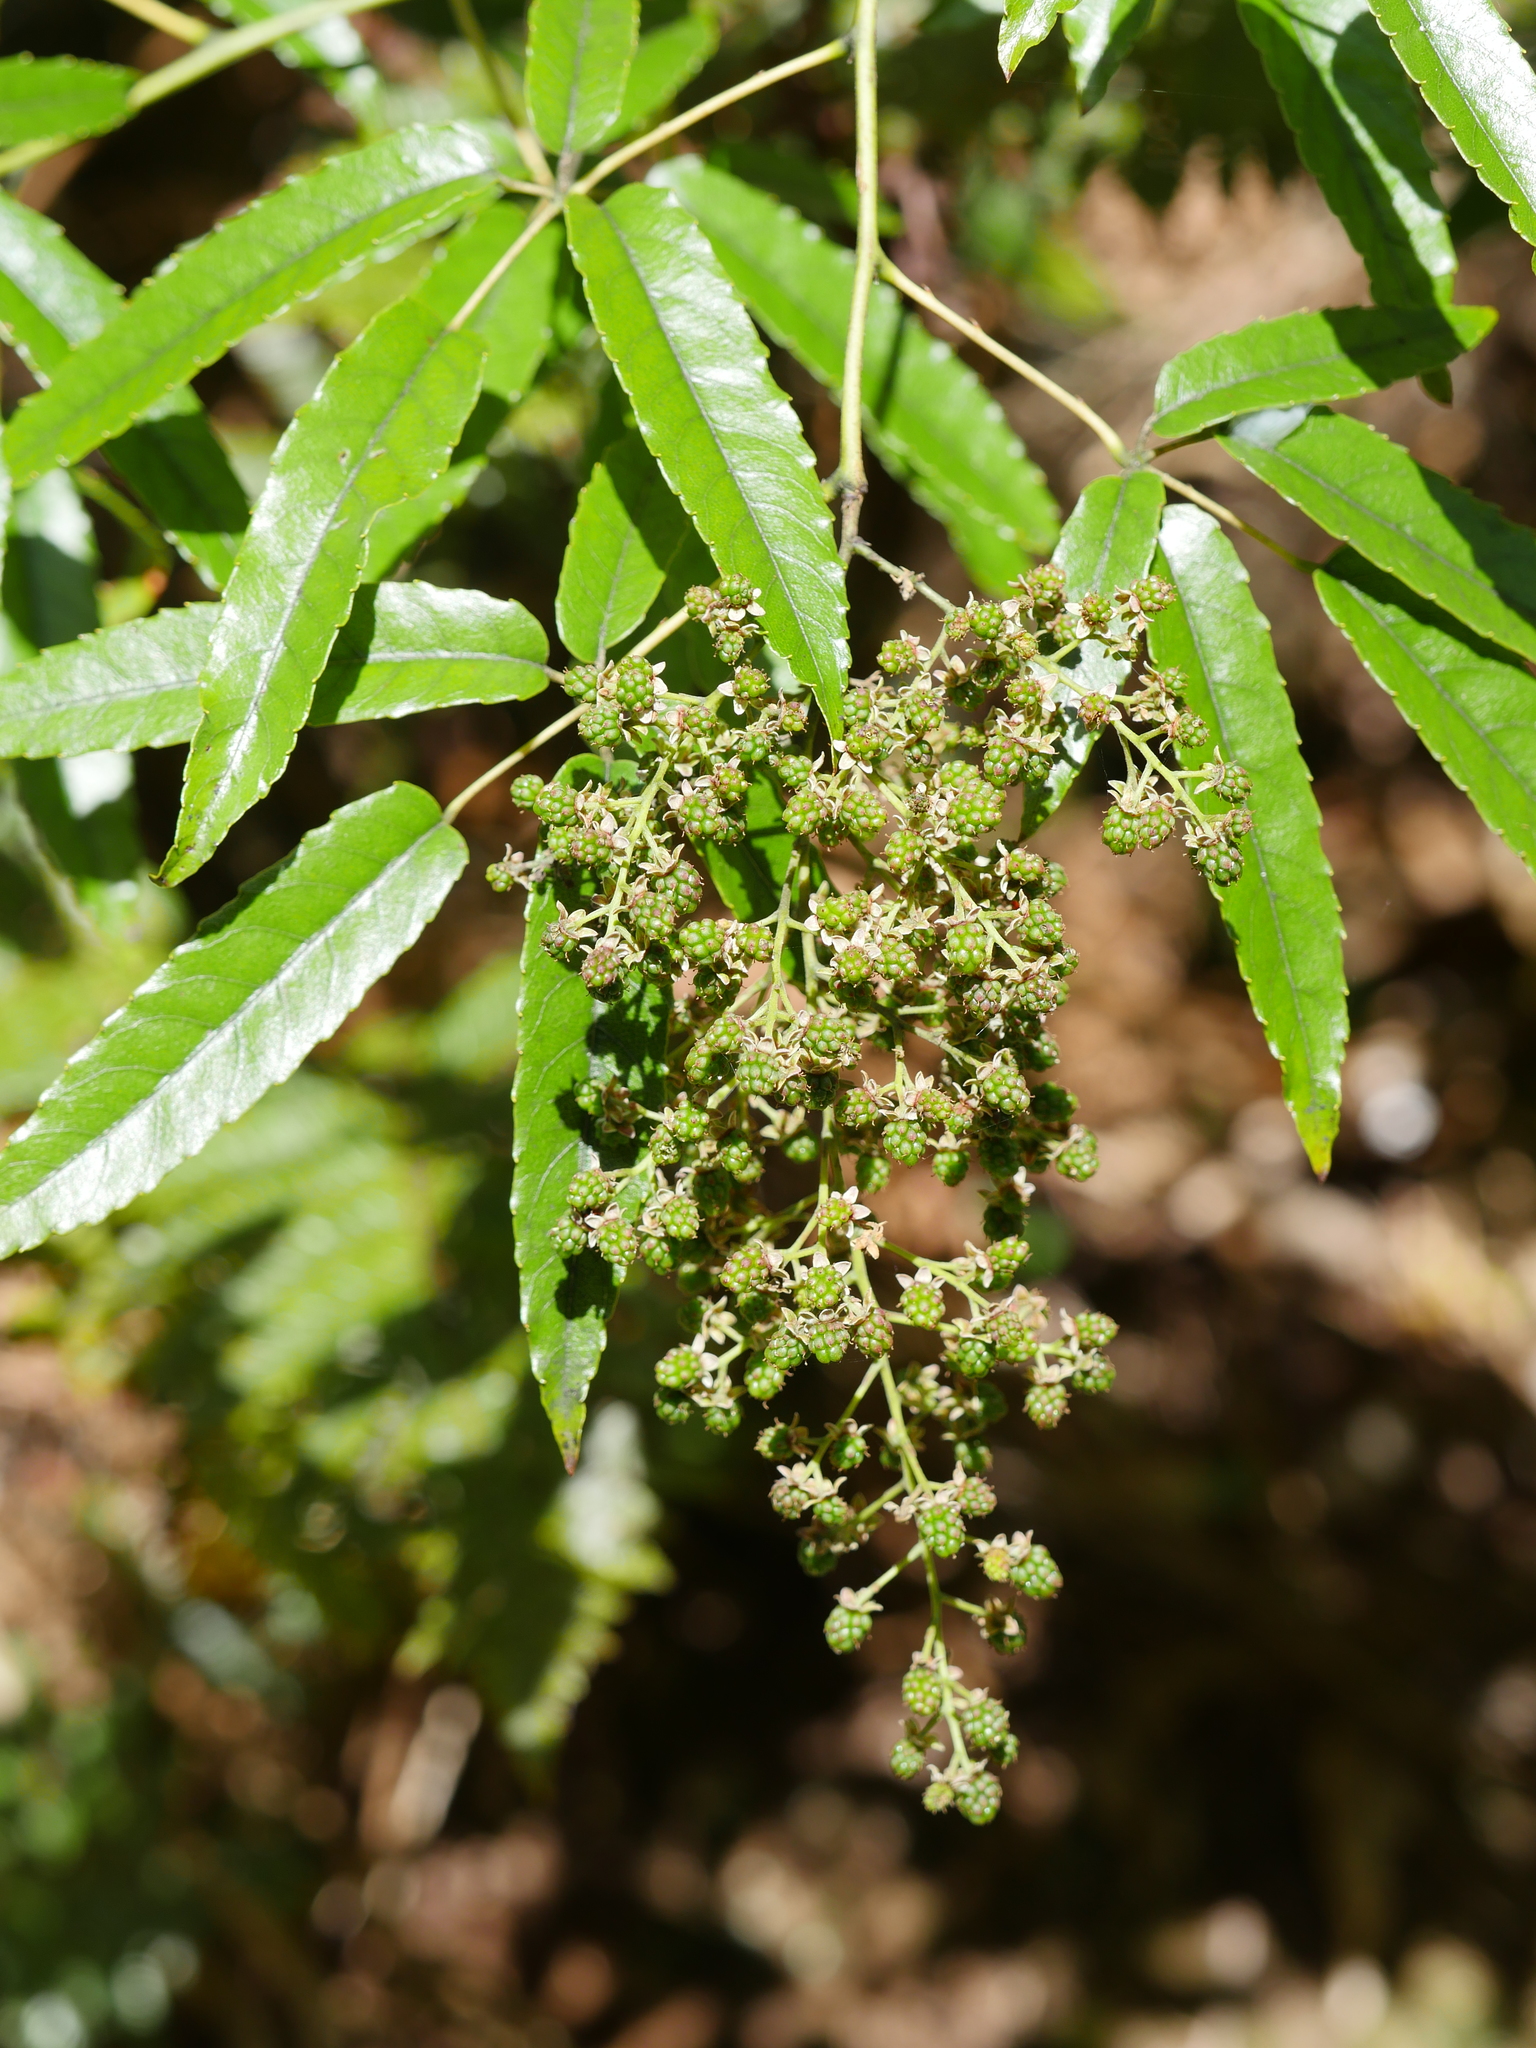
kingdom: Plantae
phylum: Tracheophyta
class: Magnoliopsida
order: Rosales
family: Rosaceae
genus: Rubus
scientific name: Rubus cissoides
